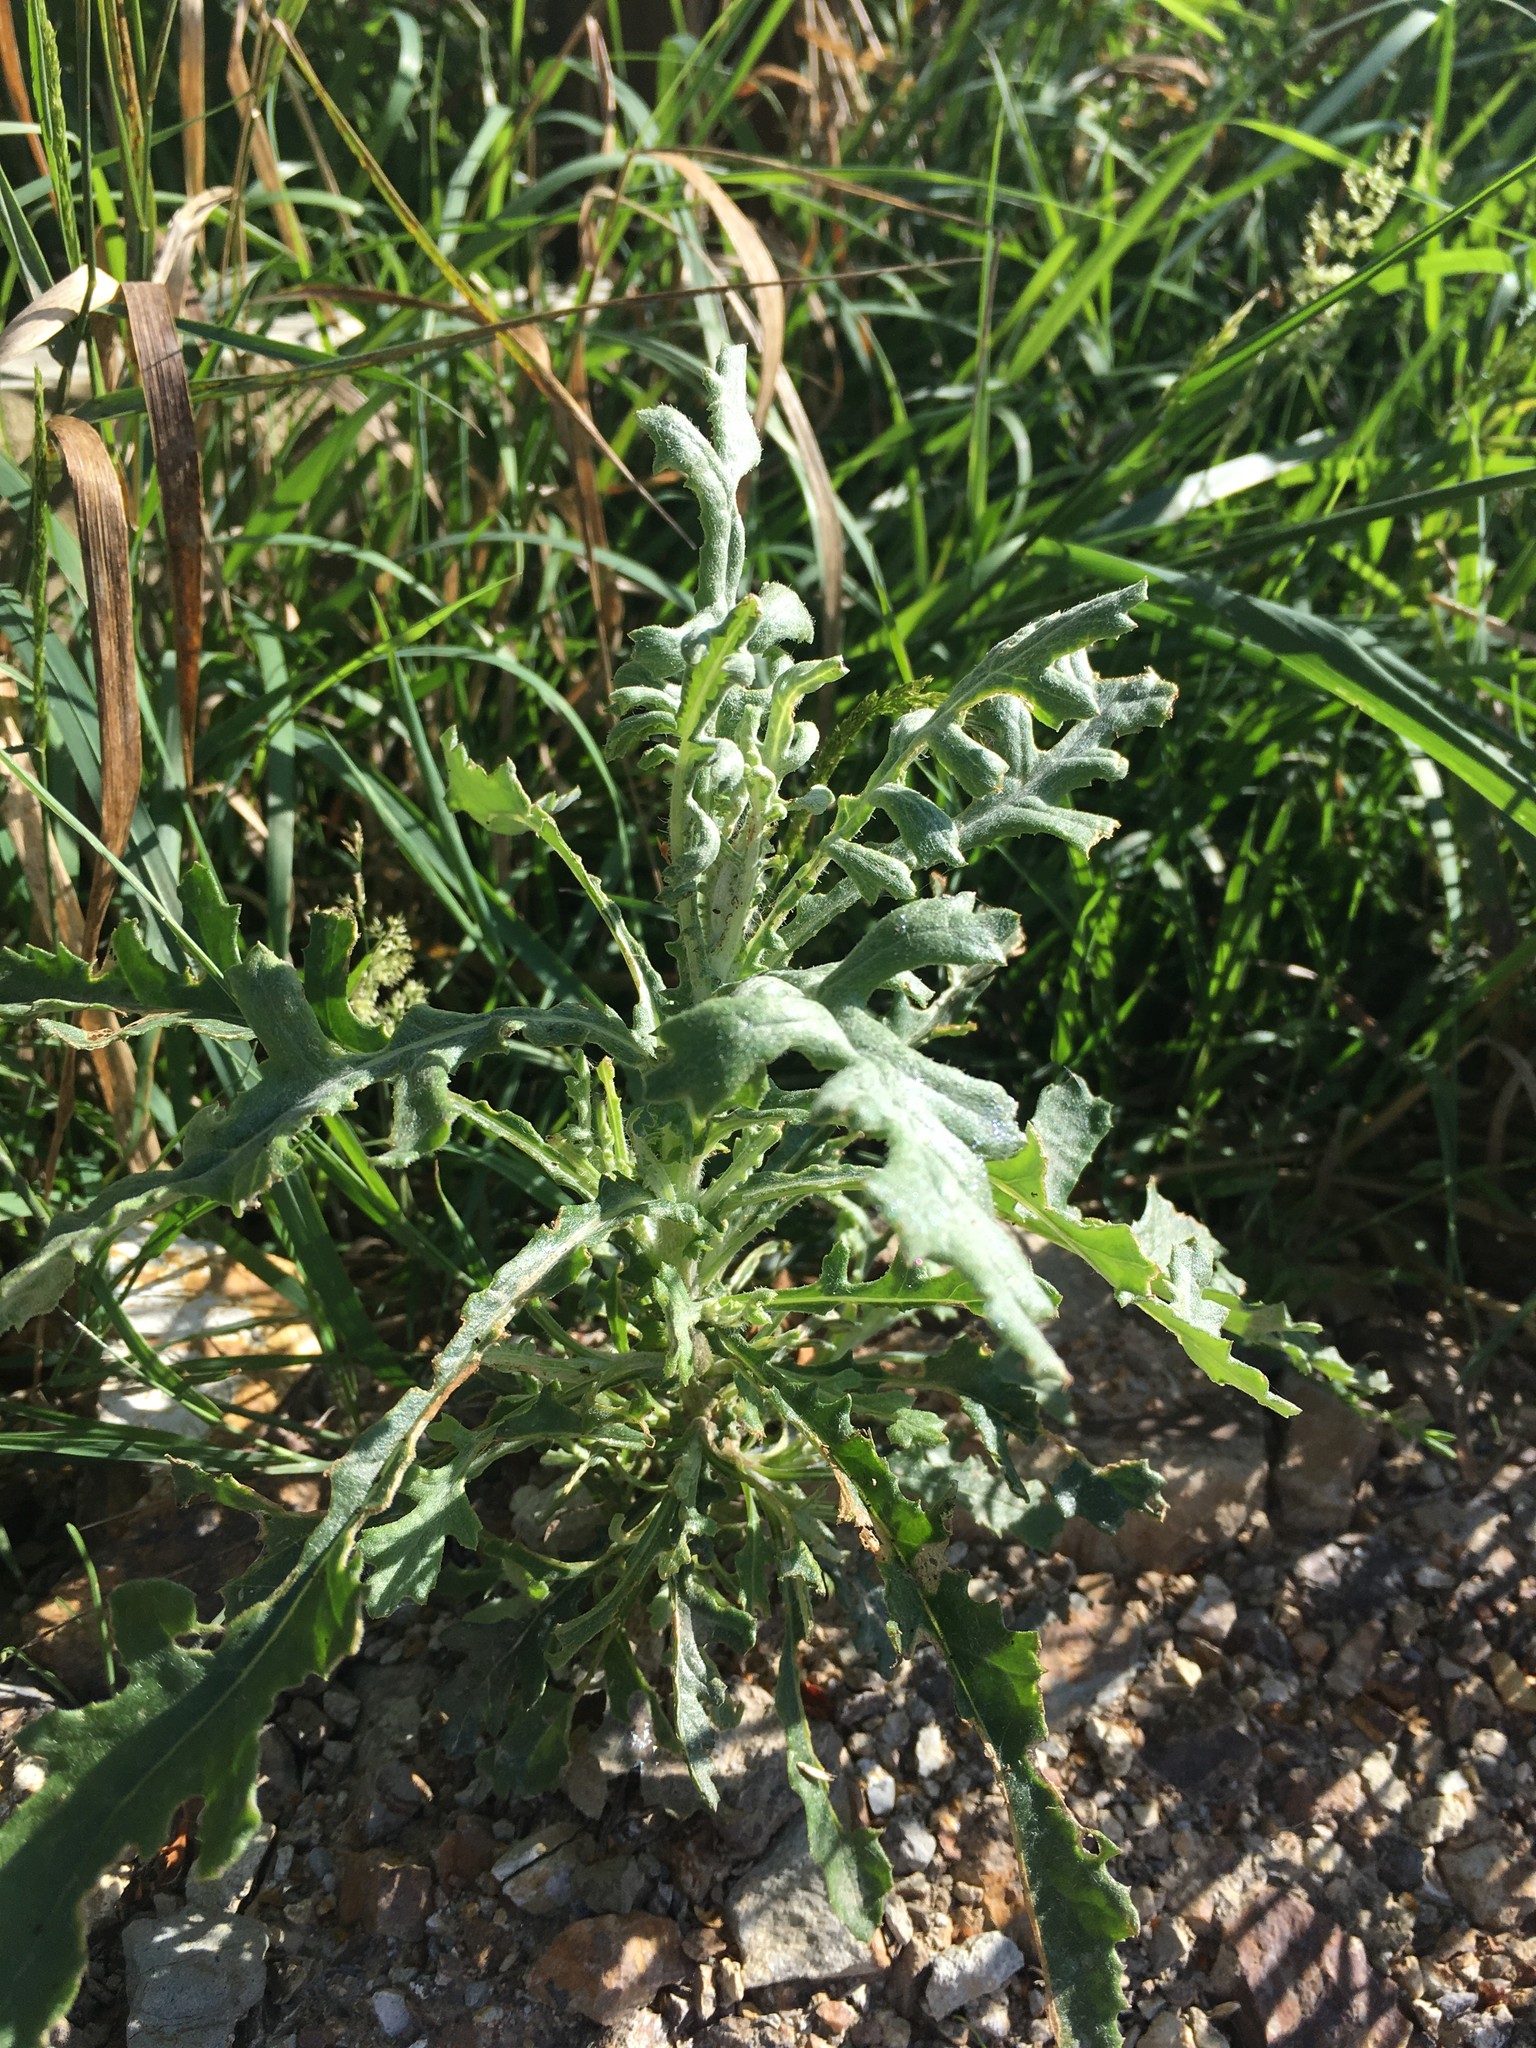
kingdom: Plantae
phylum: Tracheophyta
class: Magnoliopsida
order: Asterales
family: Asteraceae
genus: Senecio
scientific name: Senecio glomeratus
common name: Cutleaf burnweed
